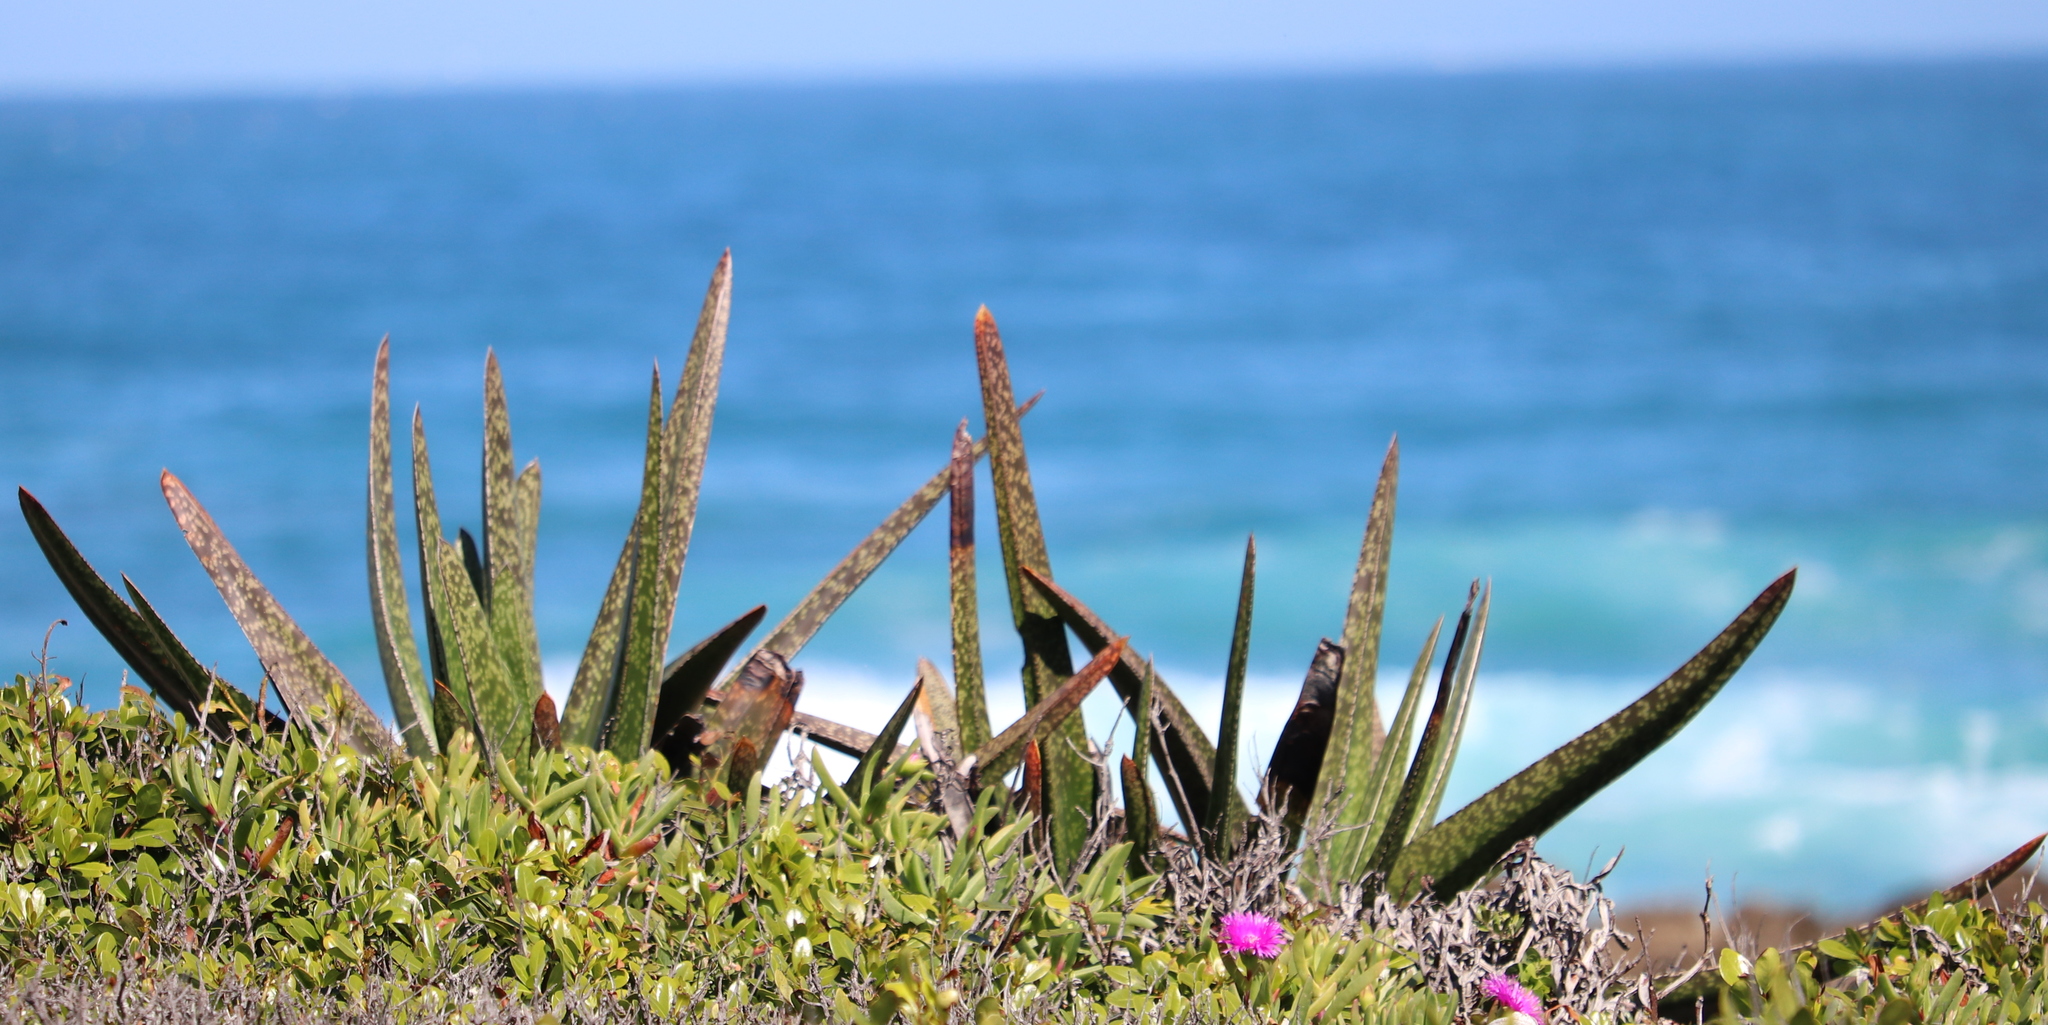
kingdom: Plantae
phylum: Tracheophyta
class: Liliopsida
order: Asparagales
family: Asphodelaceae
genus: Gasteria
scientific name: Gasteria acinacifolia
